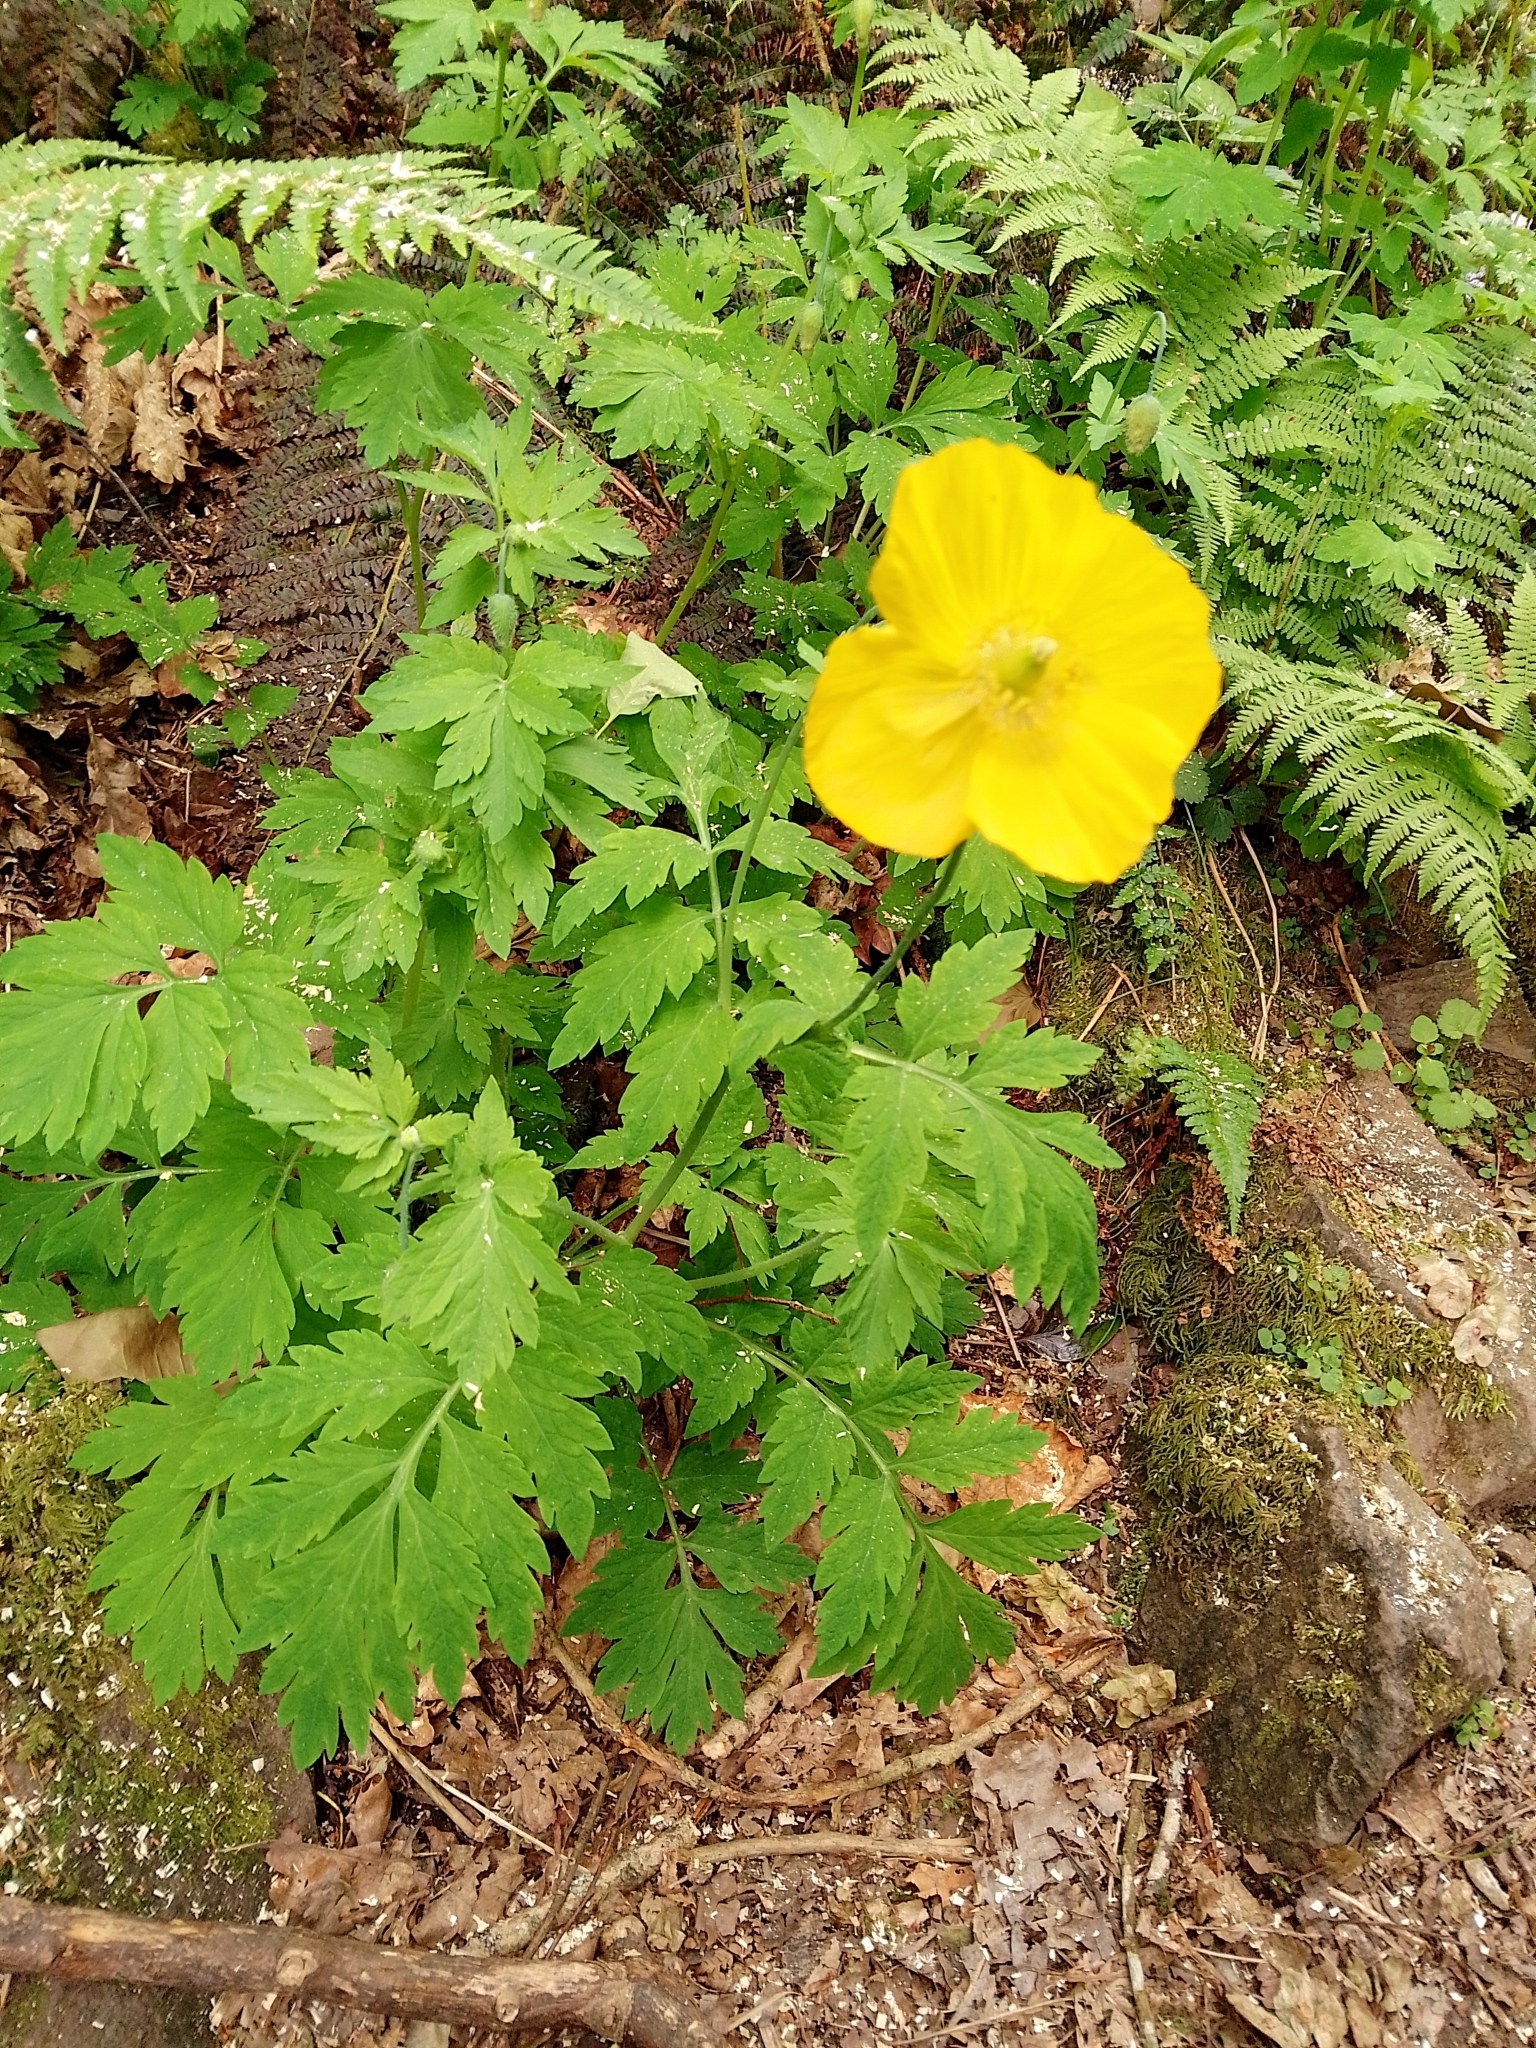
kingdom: Plantae
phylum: Tracheophyta
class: Magnoliopsida
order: Ranunculales
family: Papaveraceae
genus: Papaver
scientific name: Papaver cambricum
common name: Poppy
